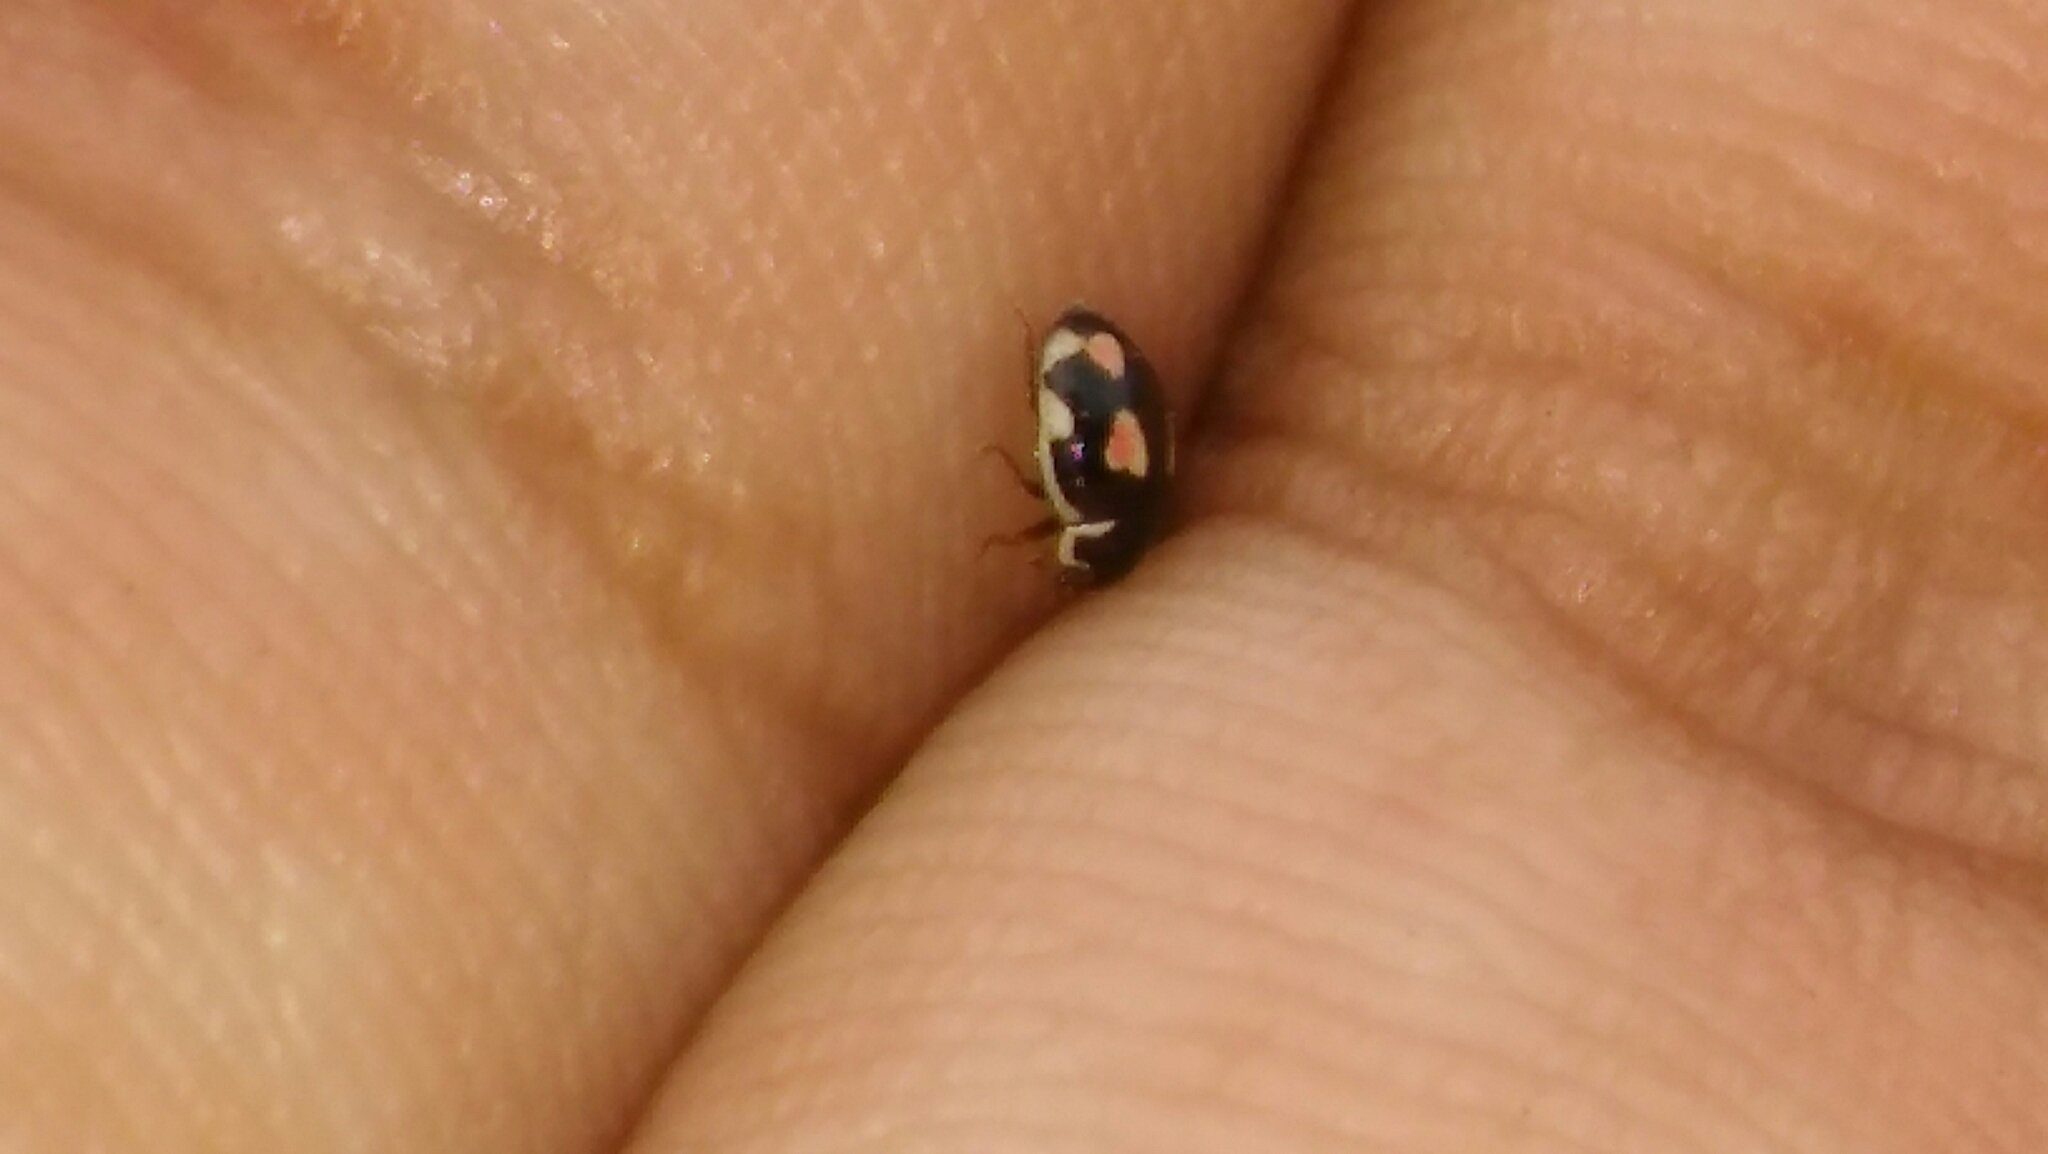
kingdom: Animalia
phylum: Arthropoda
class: Insecta
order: Coleoptera
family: Coccinellidae
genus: Hyperaspis
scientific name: Hyperaspis festiva
